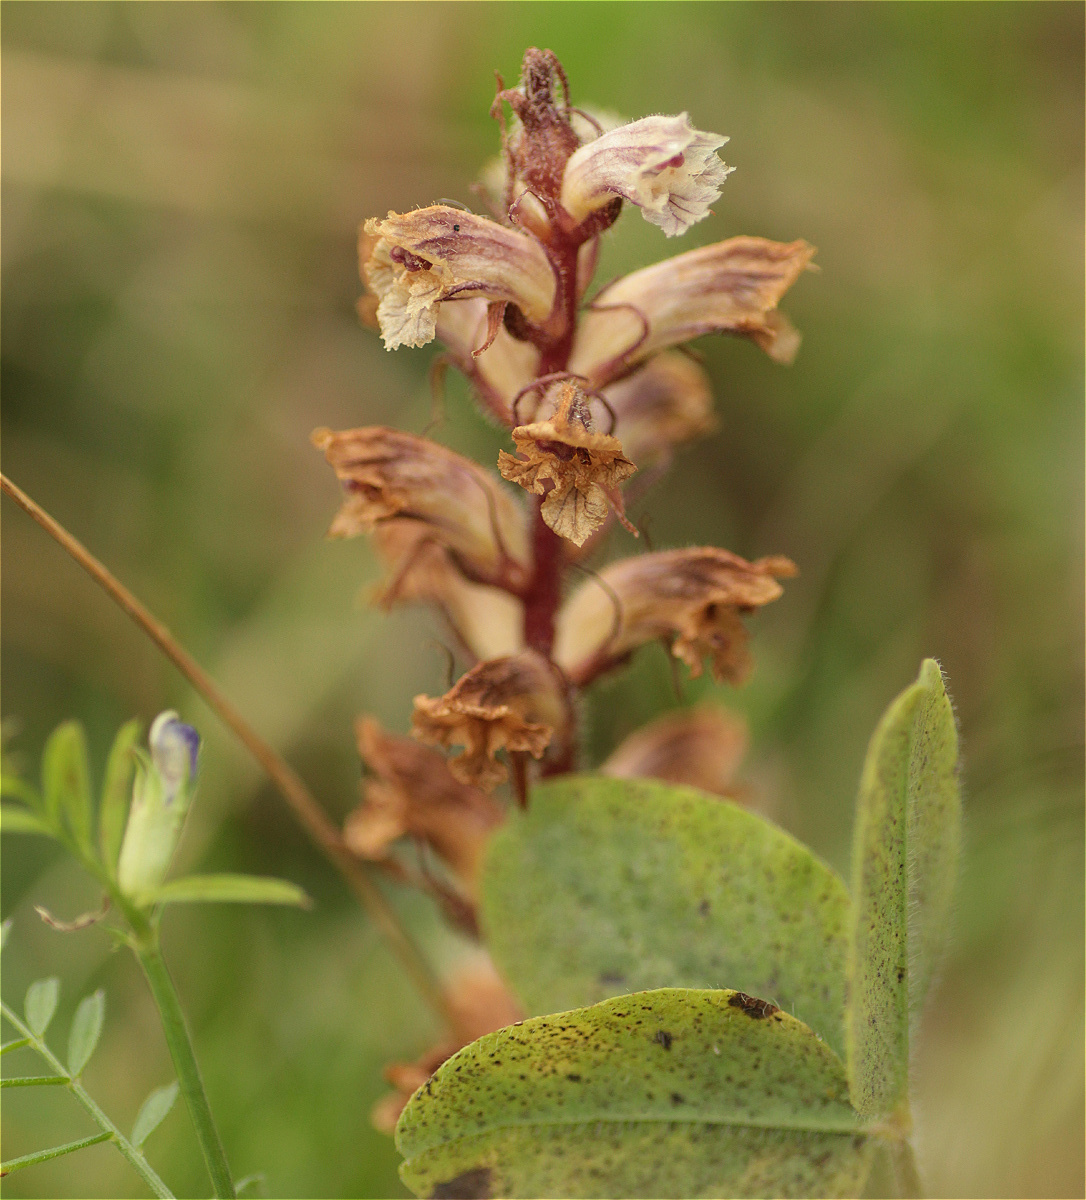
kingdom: Plantae
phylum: Tracheophyta
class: Magnoliopsida
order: Lamiales
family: Orobanchaceae
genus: Orobanche
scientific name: Orobanche minor
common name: Common broomrape
